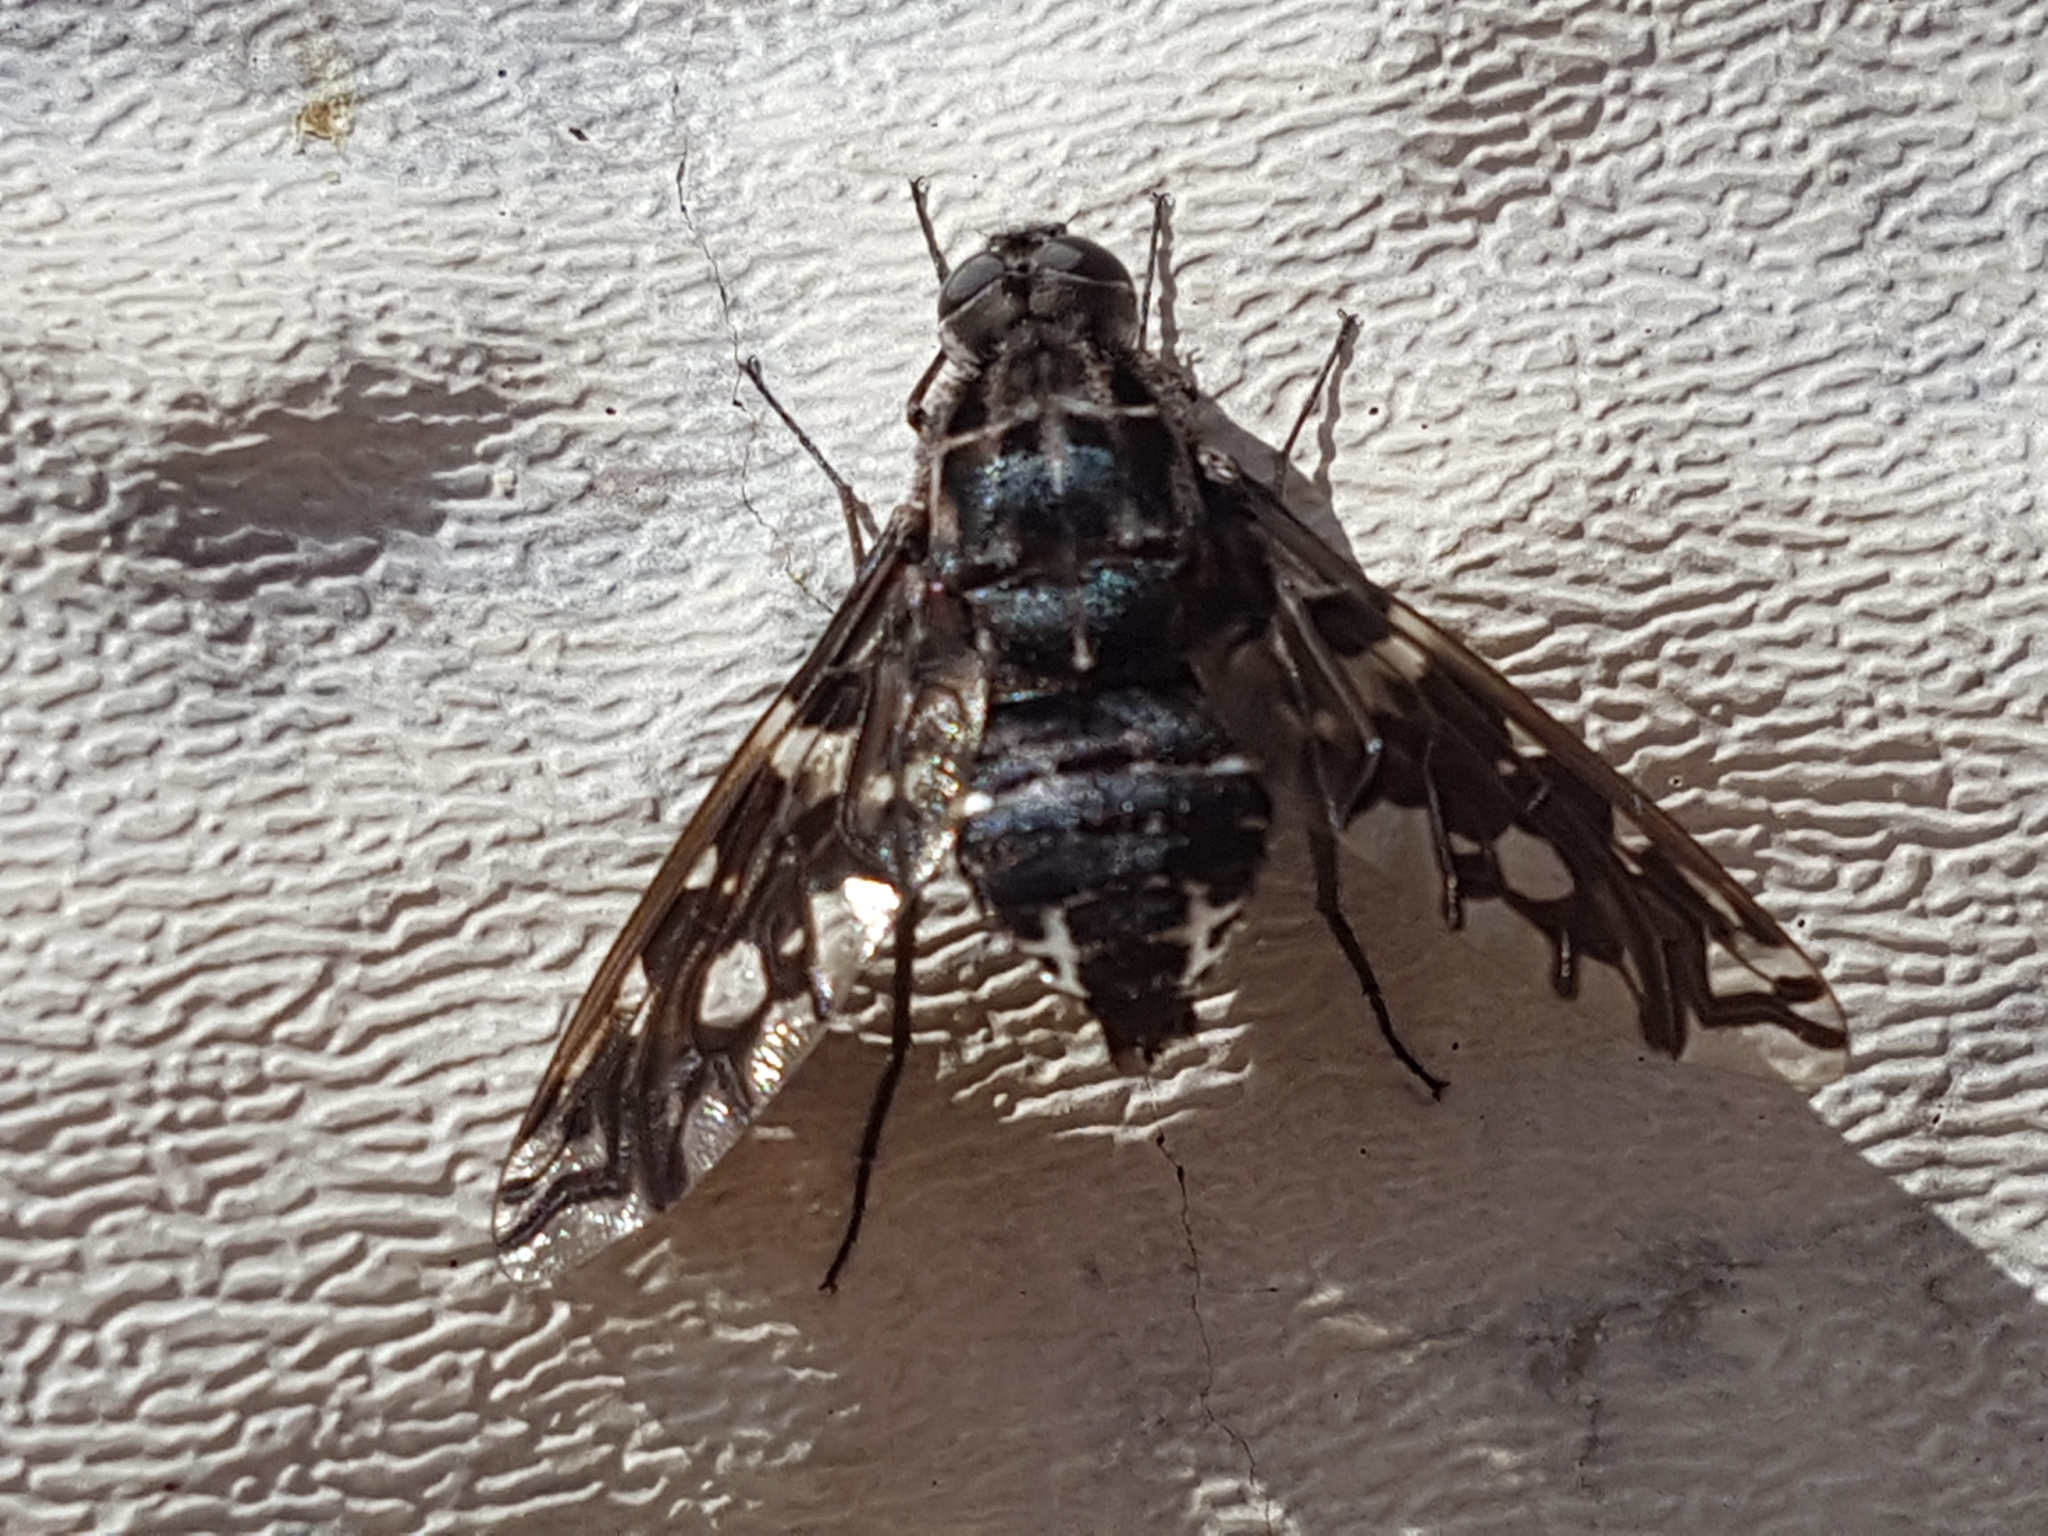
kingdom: Animalia
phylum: Arthropoda
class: Insecta
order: Diptera
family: Bombyliidae
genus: Xenox
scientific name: Xenox tigrinus
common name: Tiger bee fly
